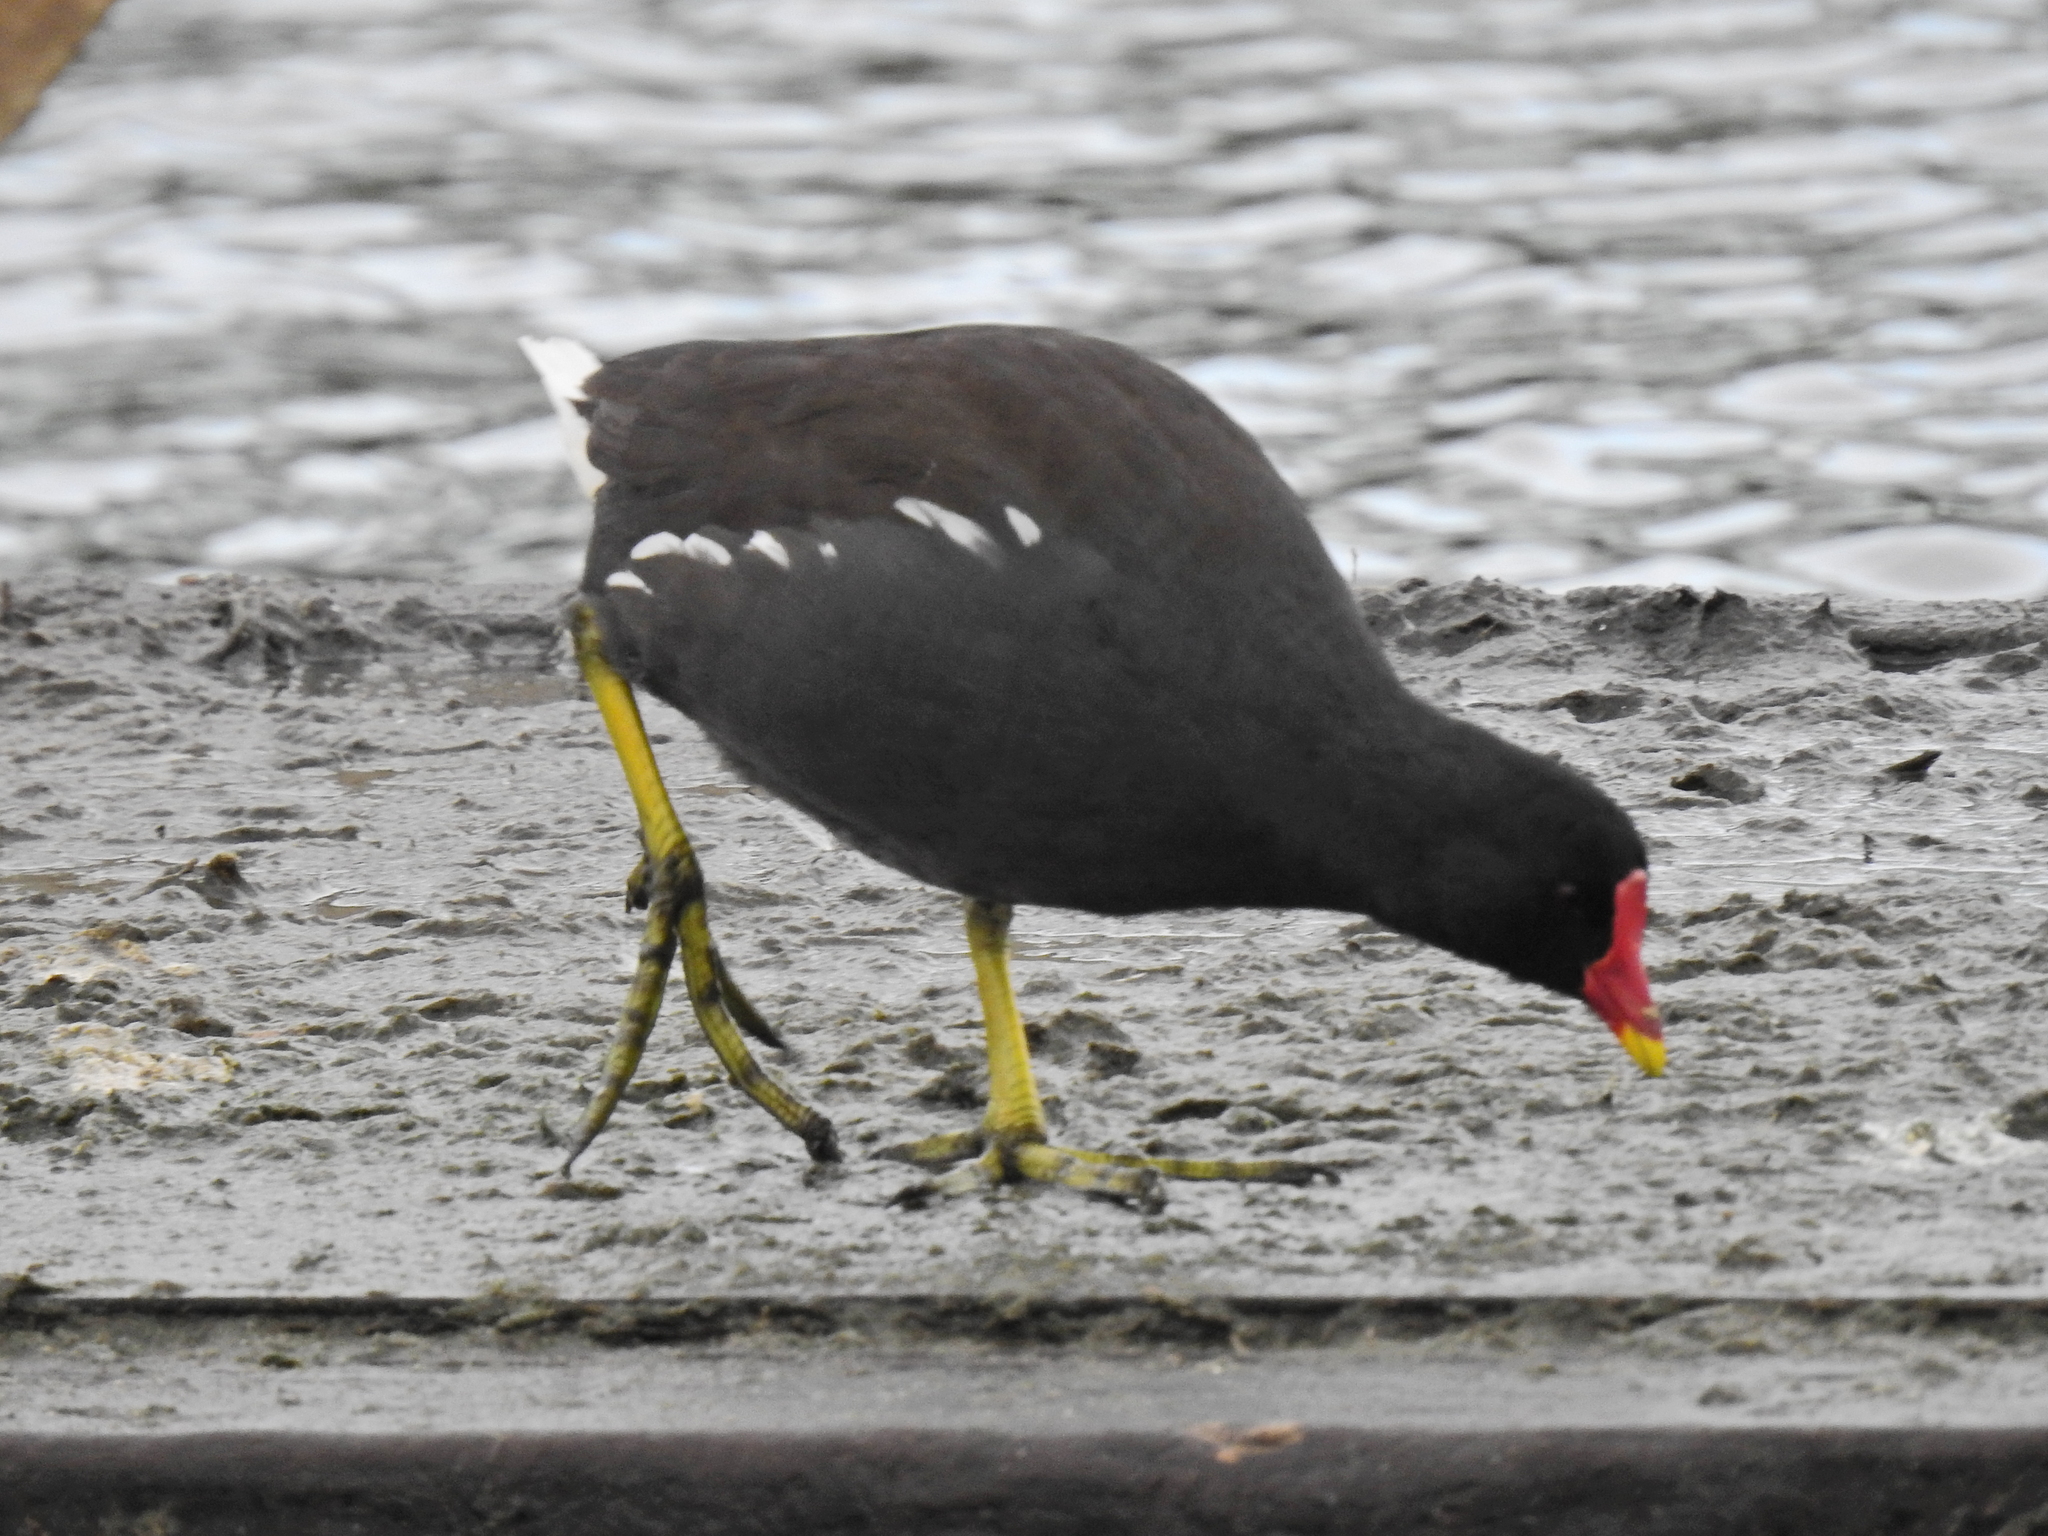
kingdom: Animalia
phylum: Chordata
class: Aves
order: Gruiformes
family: Rallidae
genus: Gallinula
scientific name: Gallinula chloropus
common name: Common moorhen
